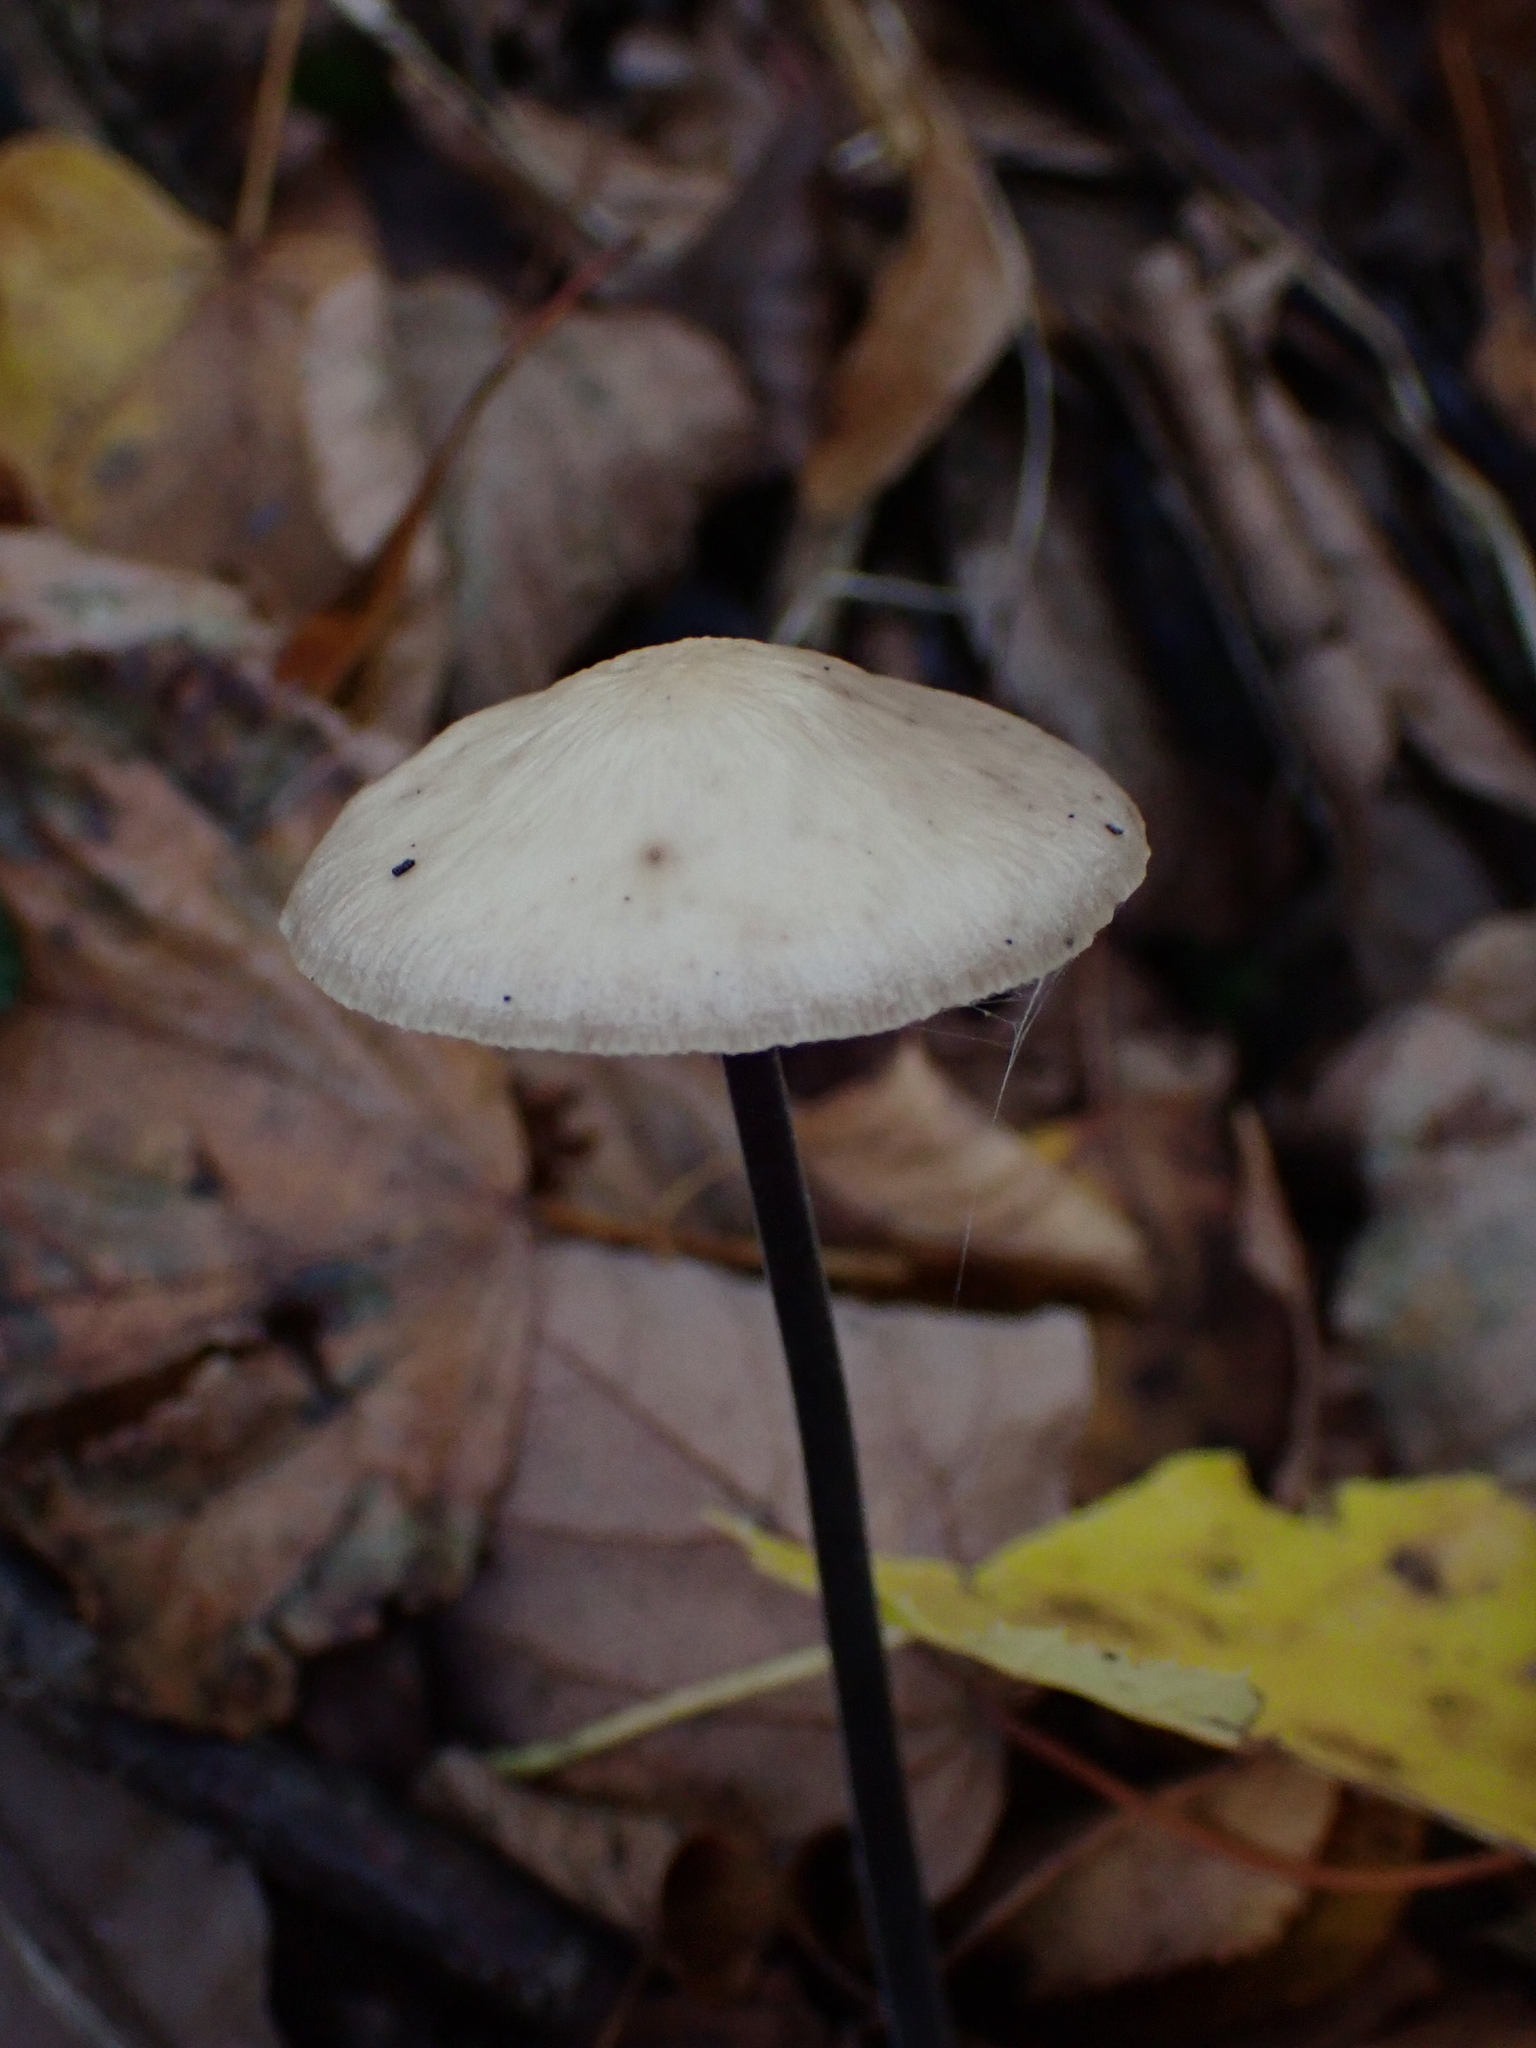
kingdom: Fungi
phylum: Basidiomycota
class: Agaricomycetes
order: Agaricales
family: Omphalotaceae
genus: Mycetinis
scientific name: Mycetinis alliaceus
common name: Garlic parachute
